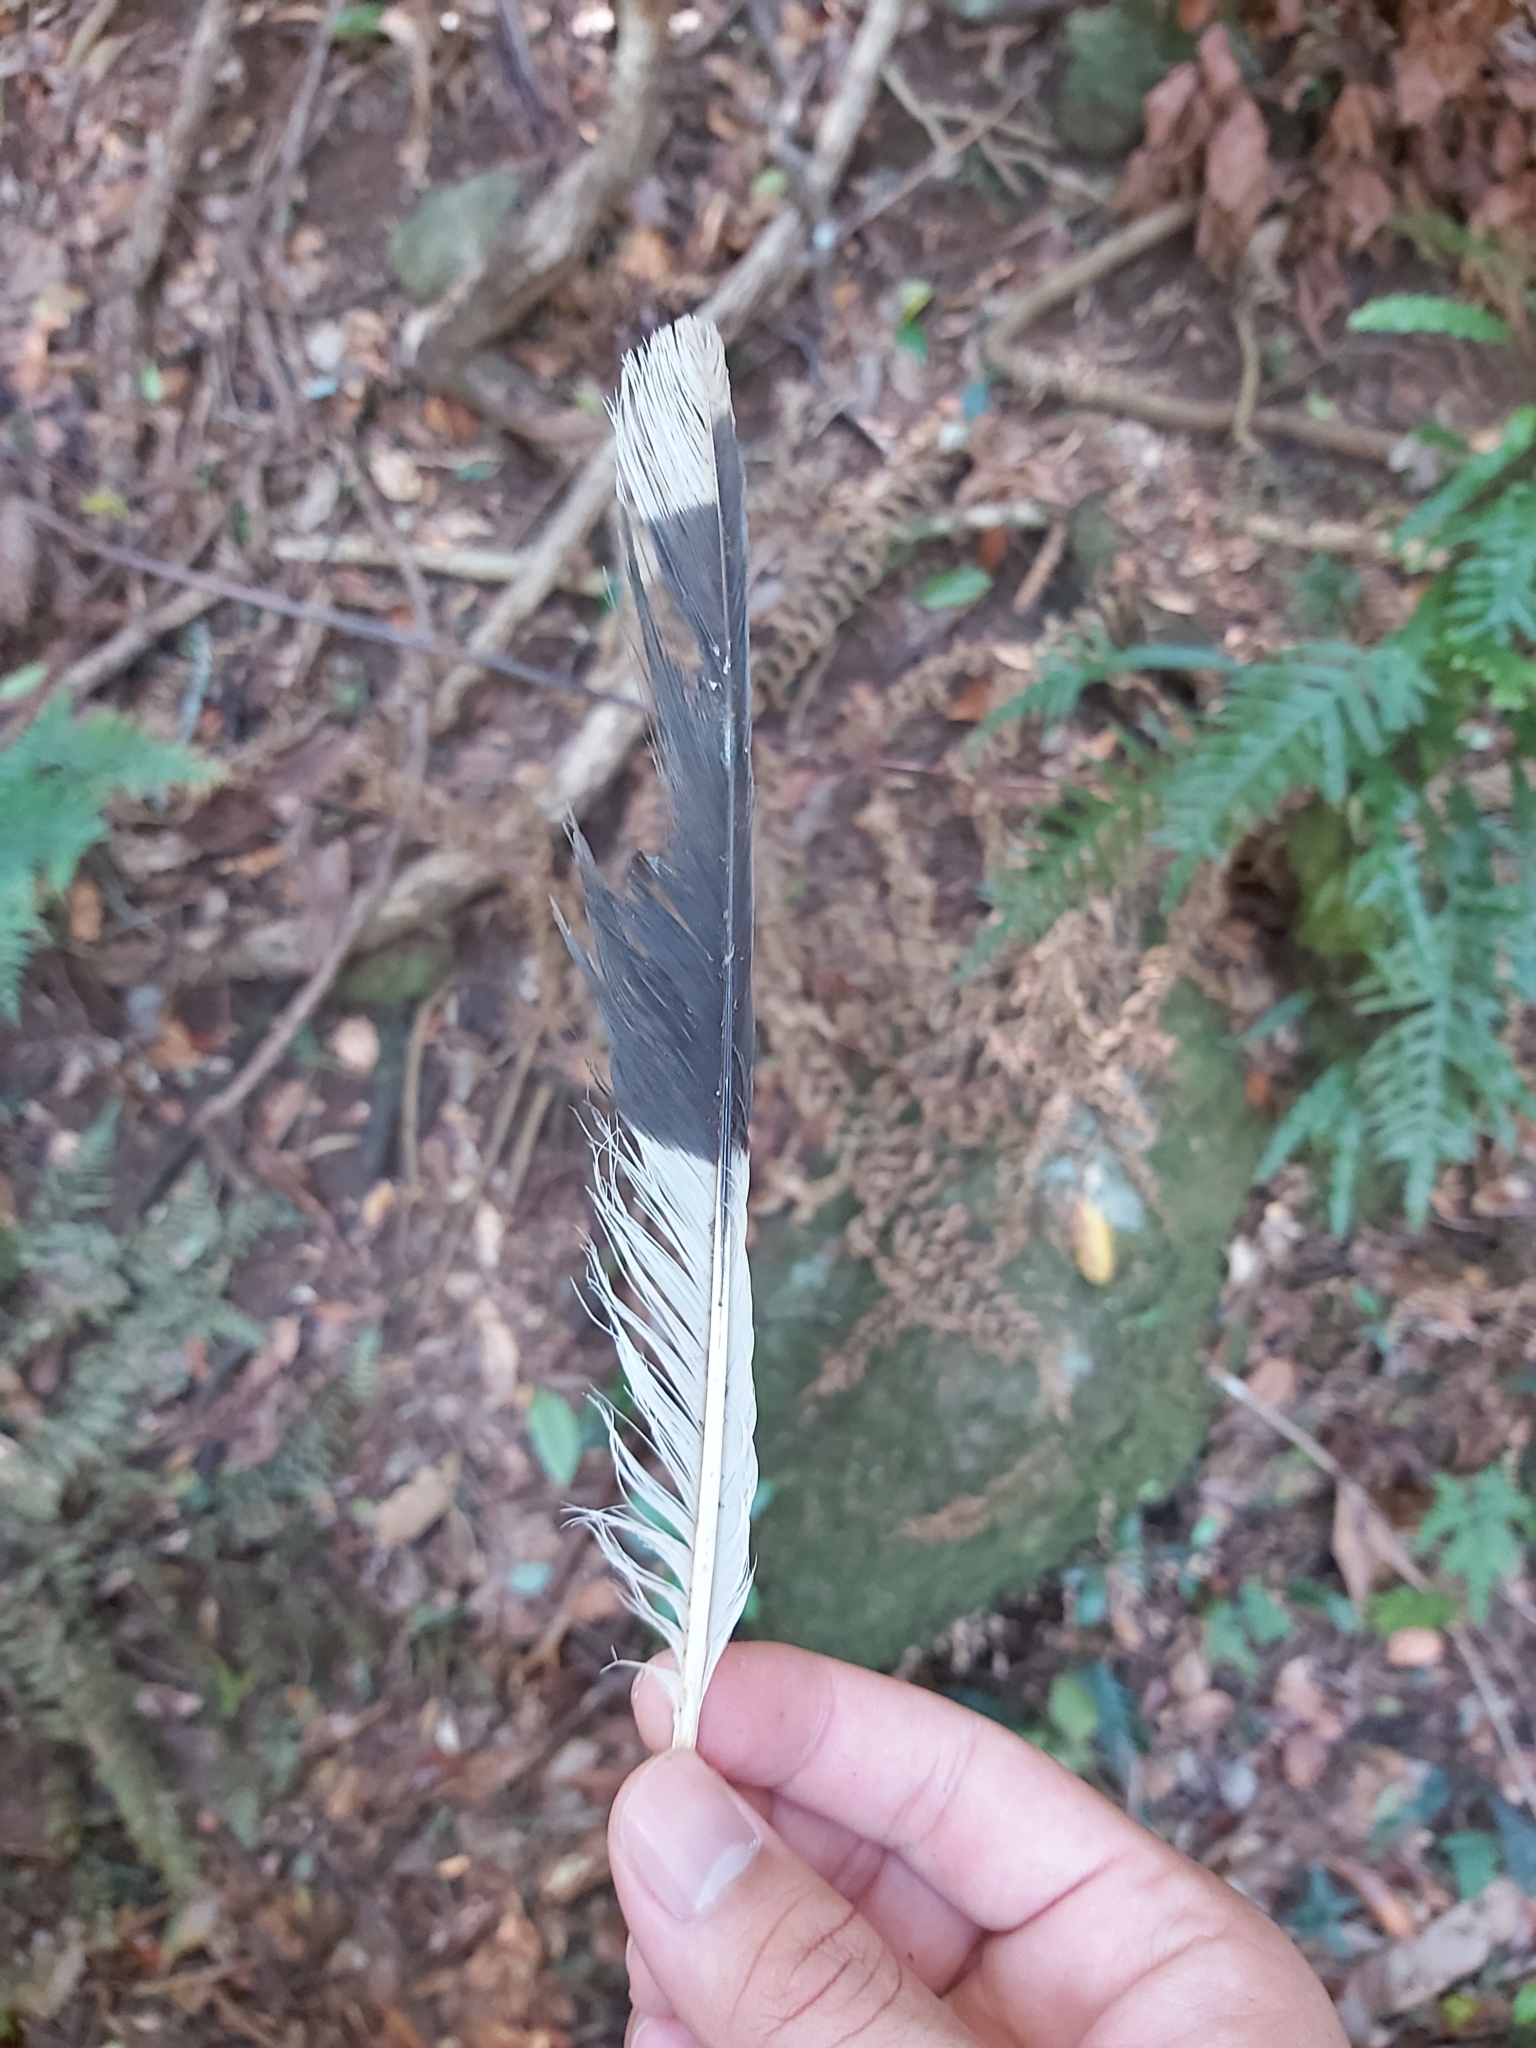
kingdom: Animalia
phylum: Chordata
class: Aves
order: Passeriformes
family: Cracticidae
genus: Strepera
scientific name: Strepera graculina
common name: Pied currawong
